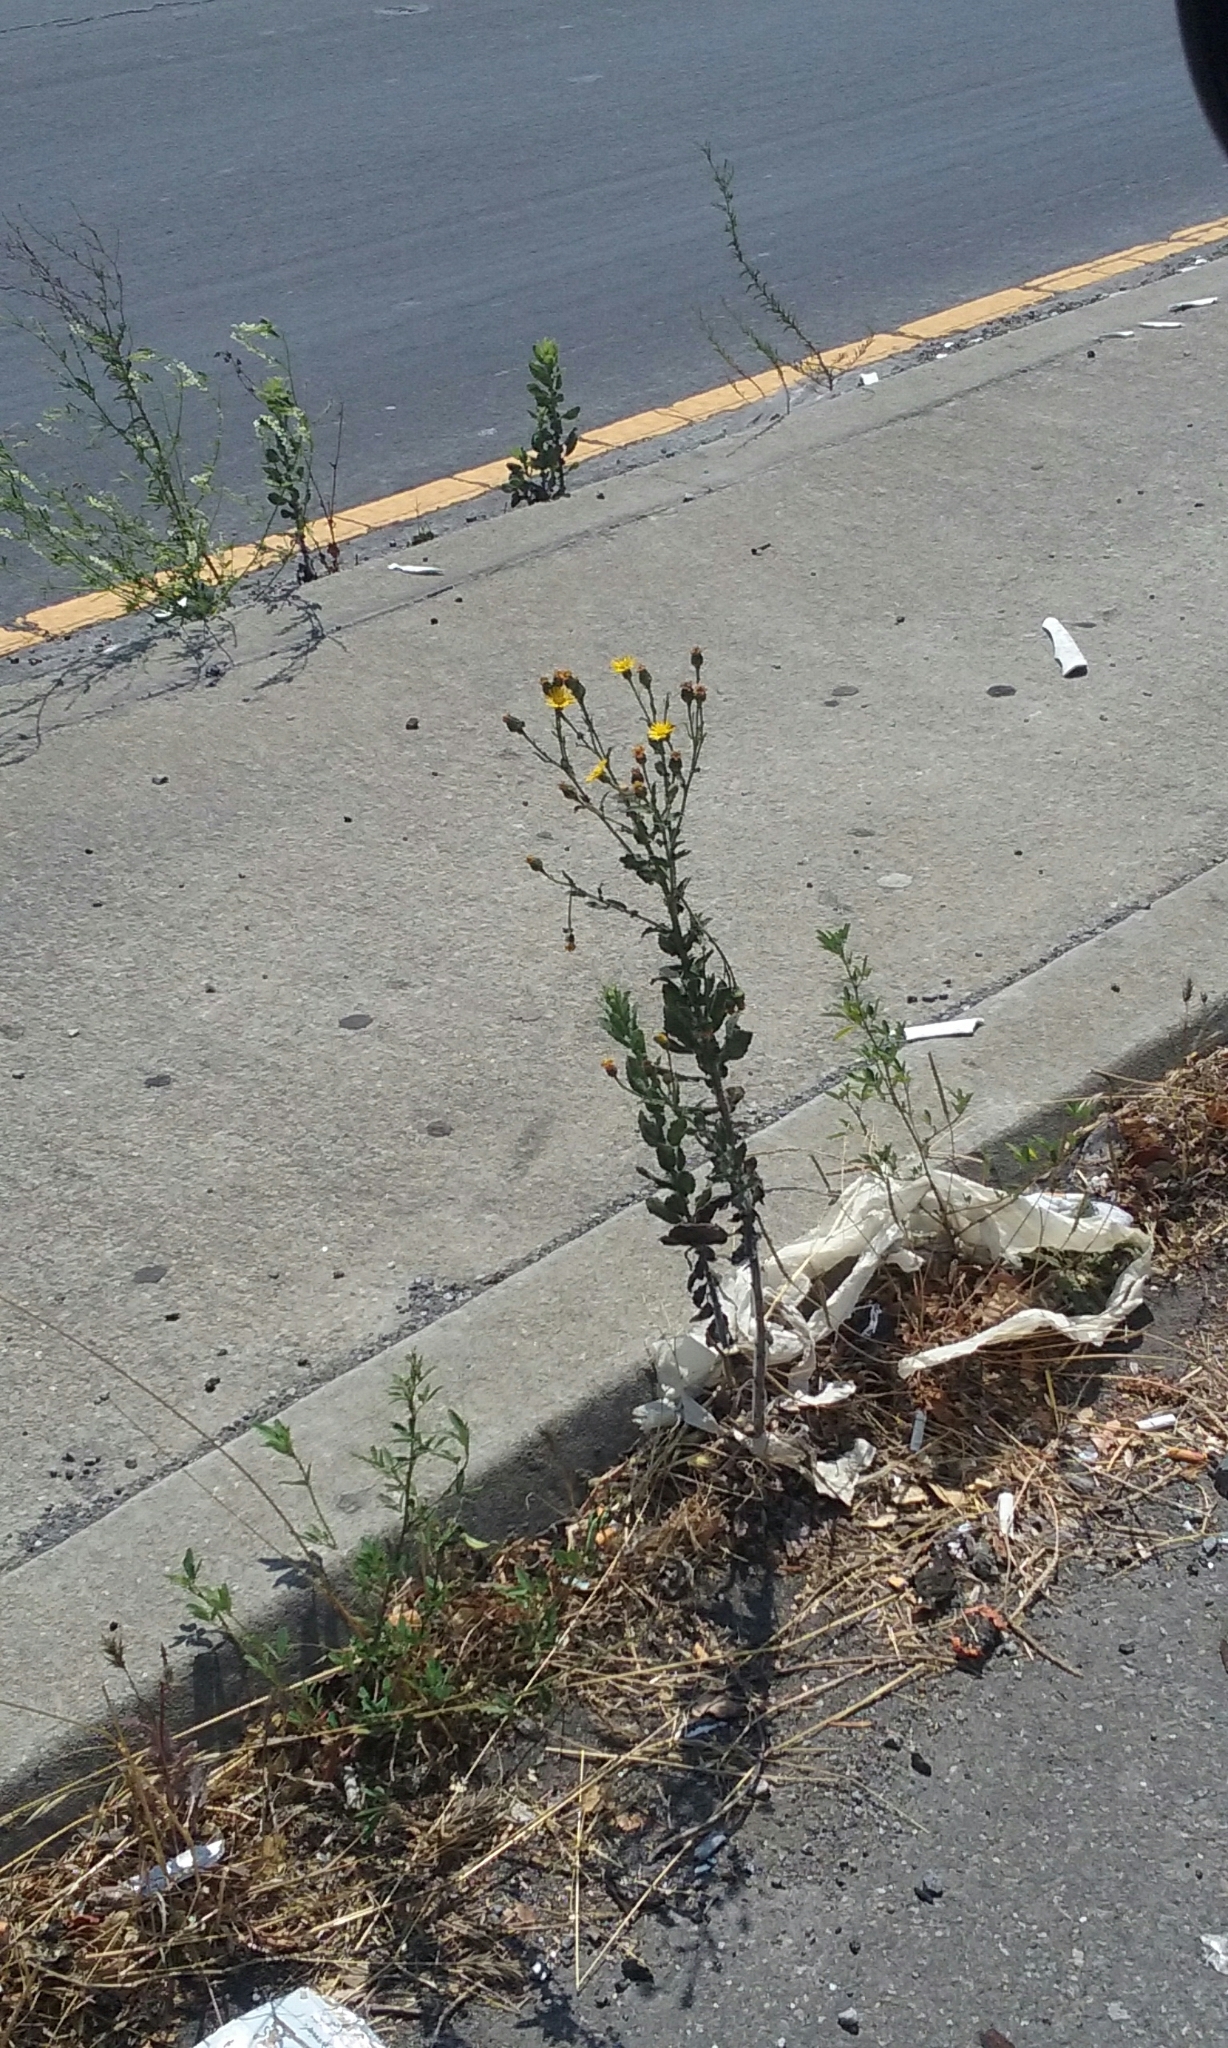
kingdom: Plantae
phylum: Tracheophyta
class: Magnoliopsida
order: Asterales
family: Asteraceae
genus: Heterotheca
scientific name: Heterotheca grandiflora
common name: Telegraphweed
